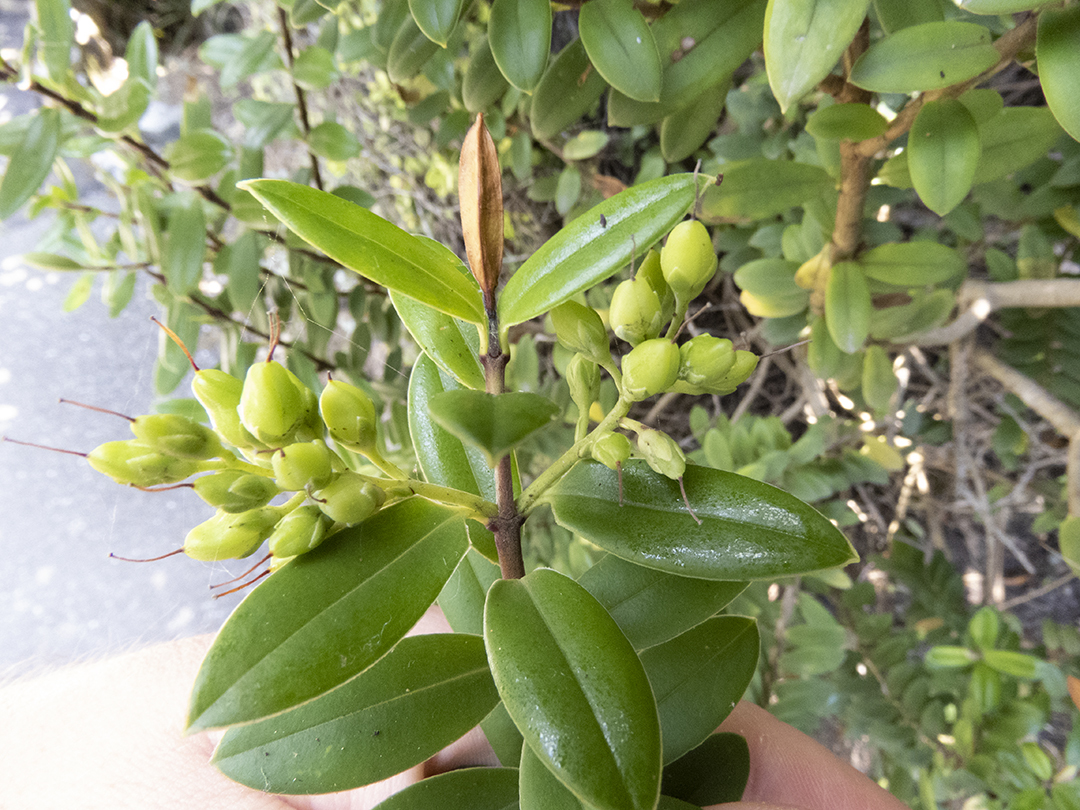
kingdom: Plantae
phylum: Tracheophyta
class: Magnoliopsida
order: Lamiales
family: Plantaginaceae
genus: Veronica
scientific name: Veronica elliptica
